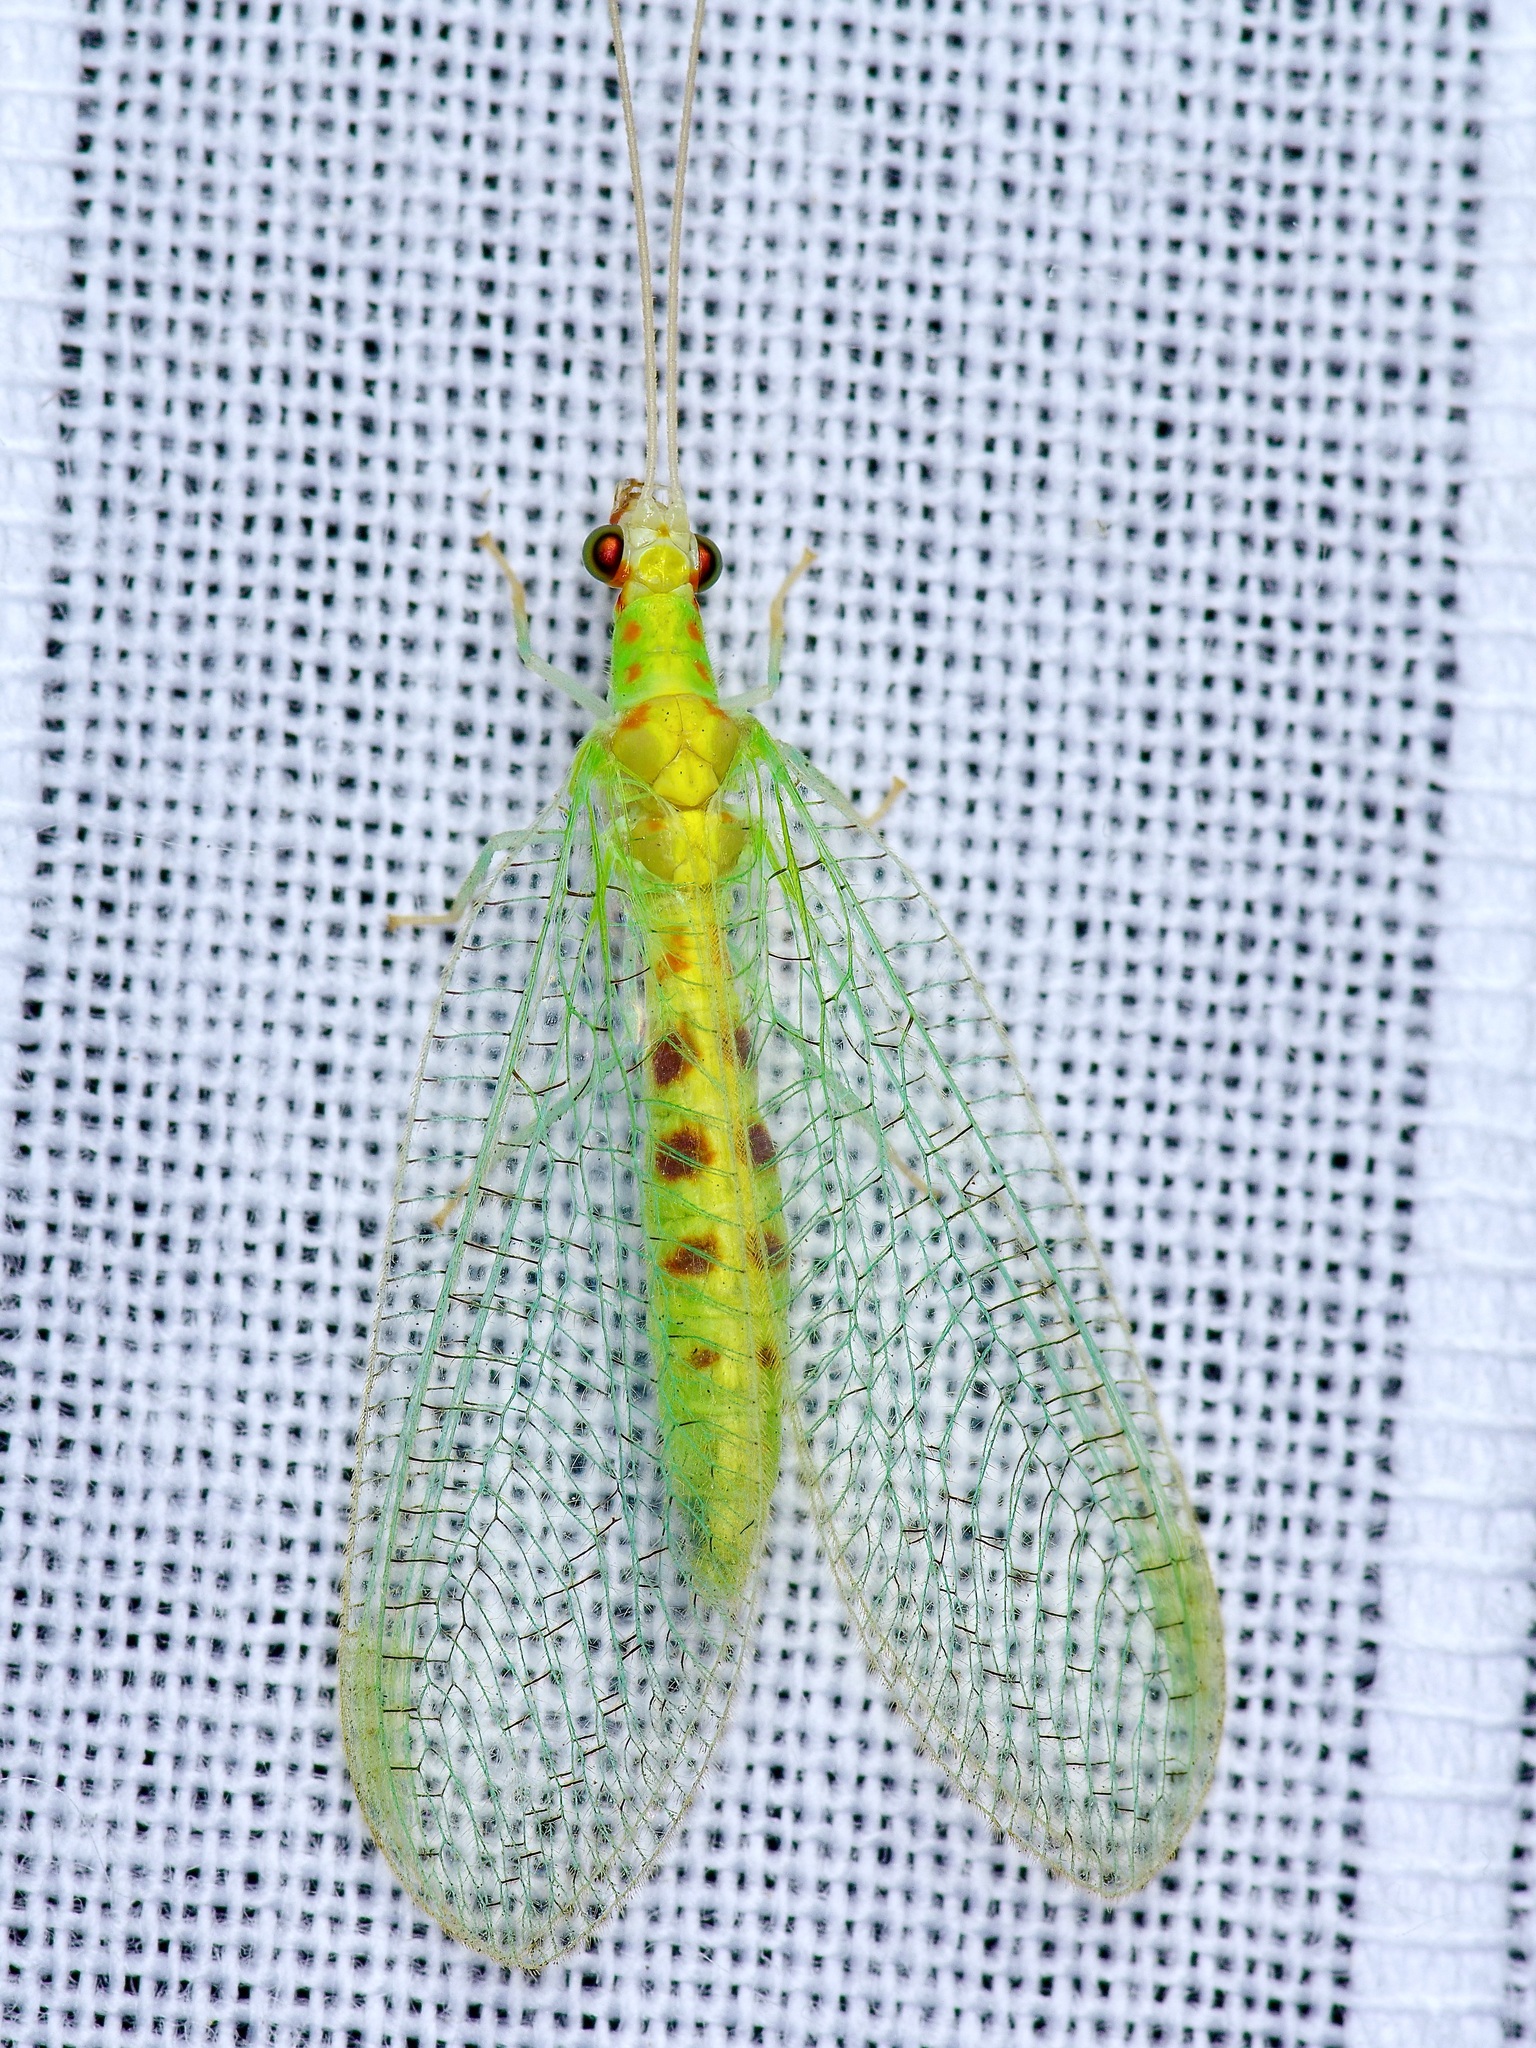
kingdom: Animalia
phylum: Arthropoda
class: Insecta
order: Neuroptera
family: Chrysopidae
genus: Chrysopa
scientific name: Chrysopa quadripunctata
